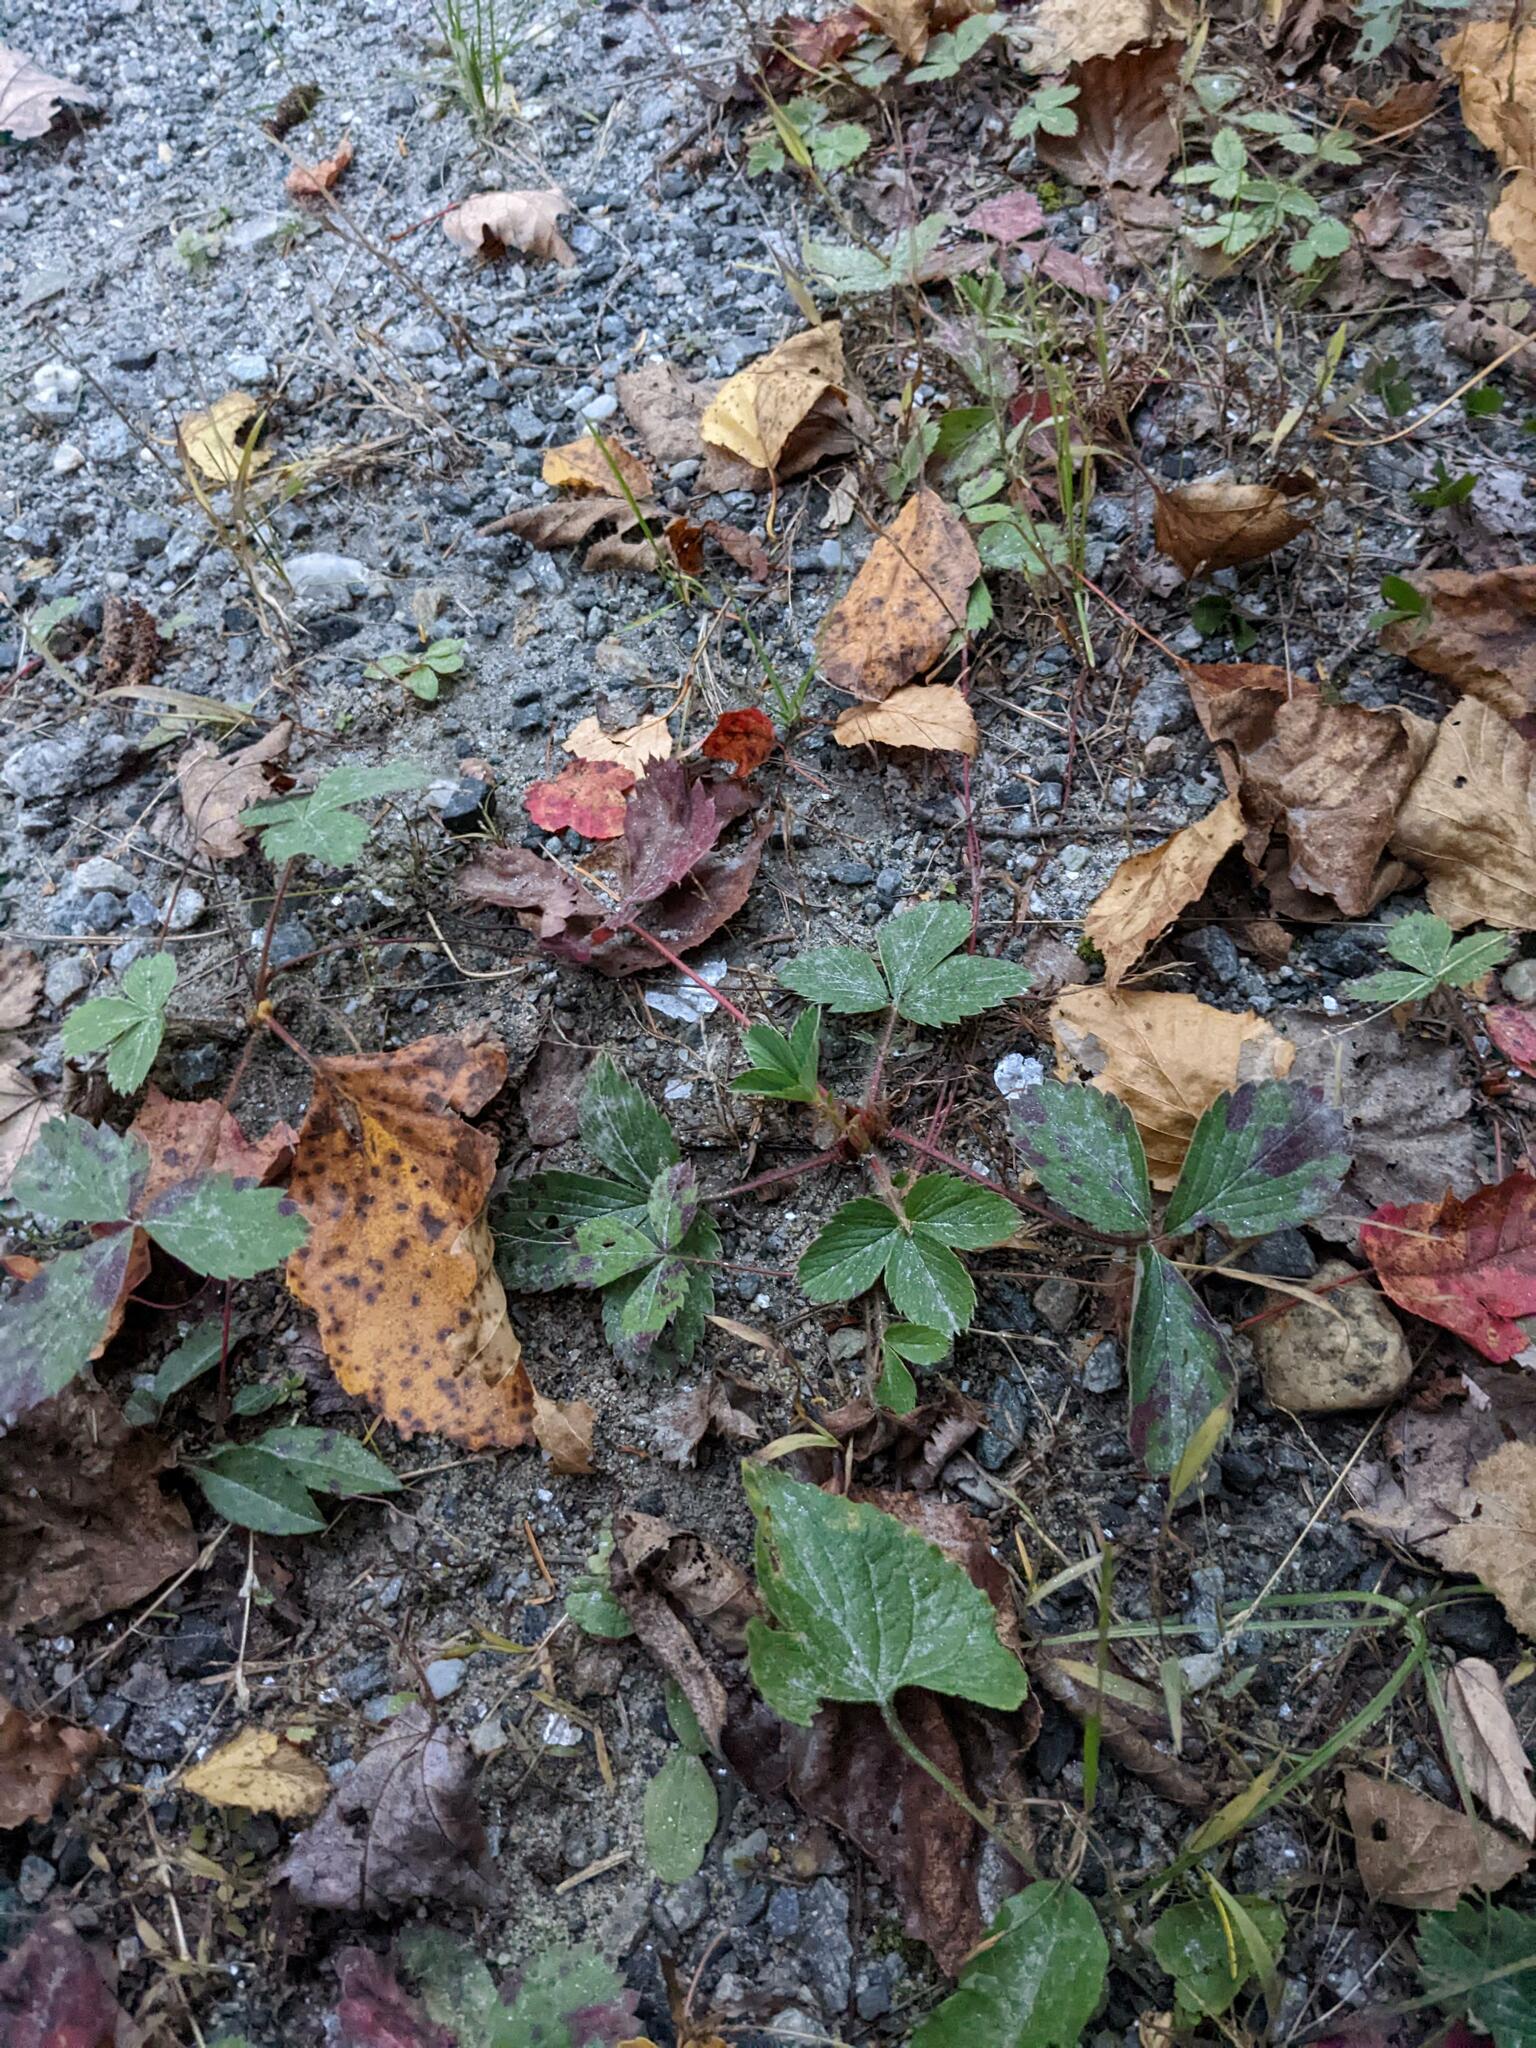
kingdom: Plantae
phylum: Tracheophyta
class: Magnoliopsida
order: Rosales
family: Rosaceae
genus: Fragaria
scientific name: Fragaria virginiana
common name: Thickleaved wild strawberry
